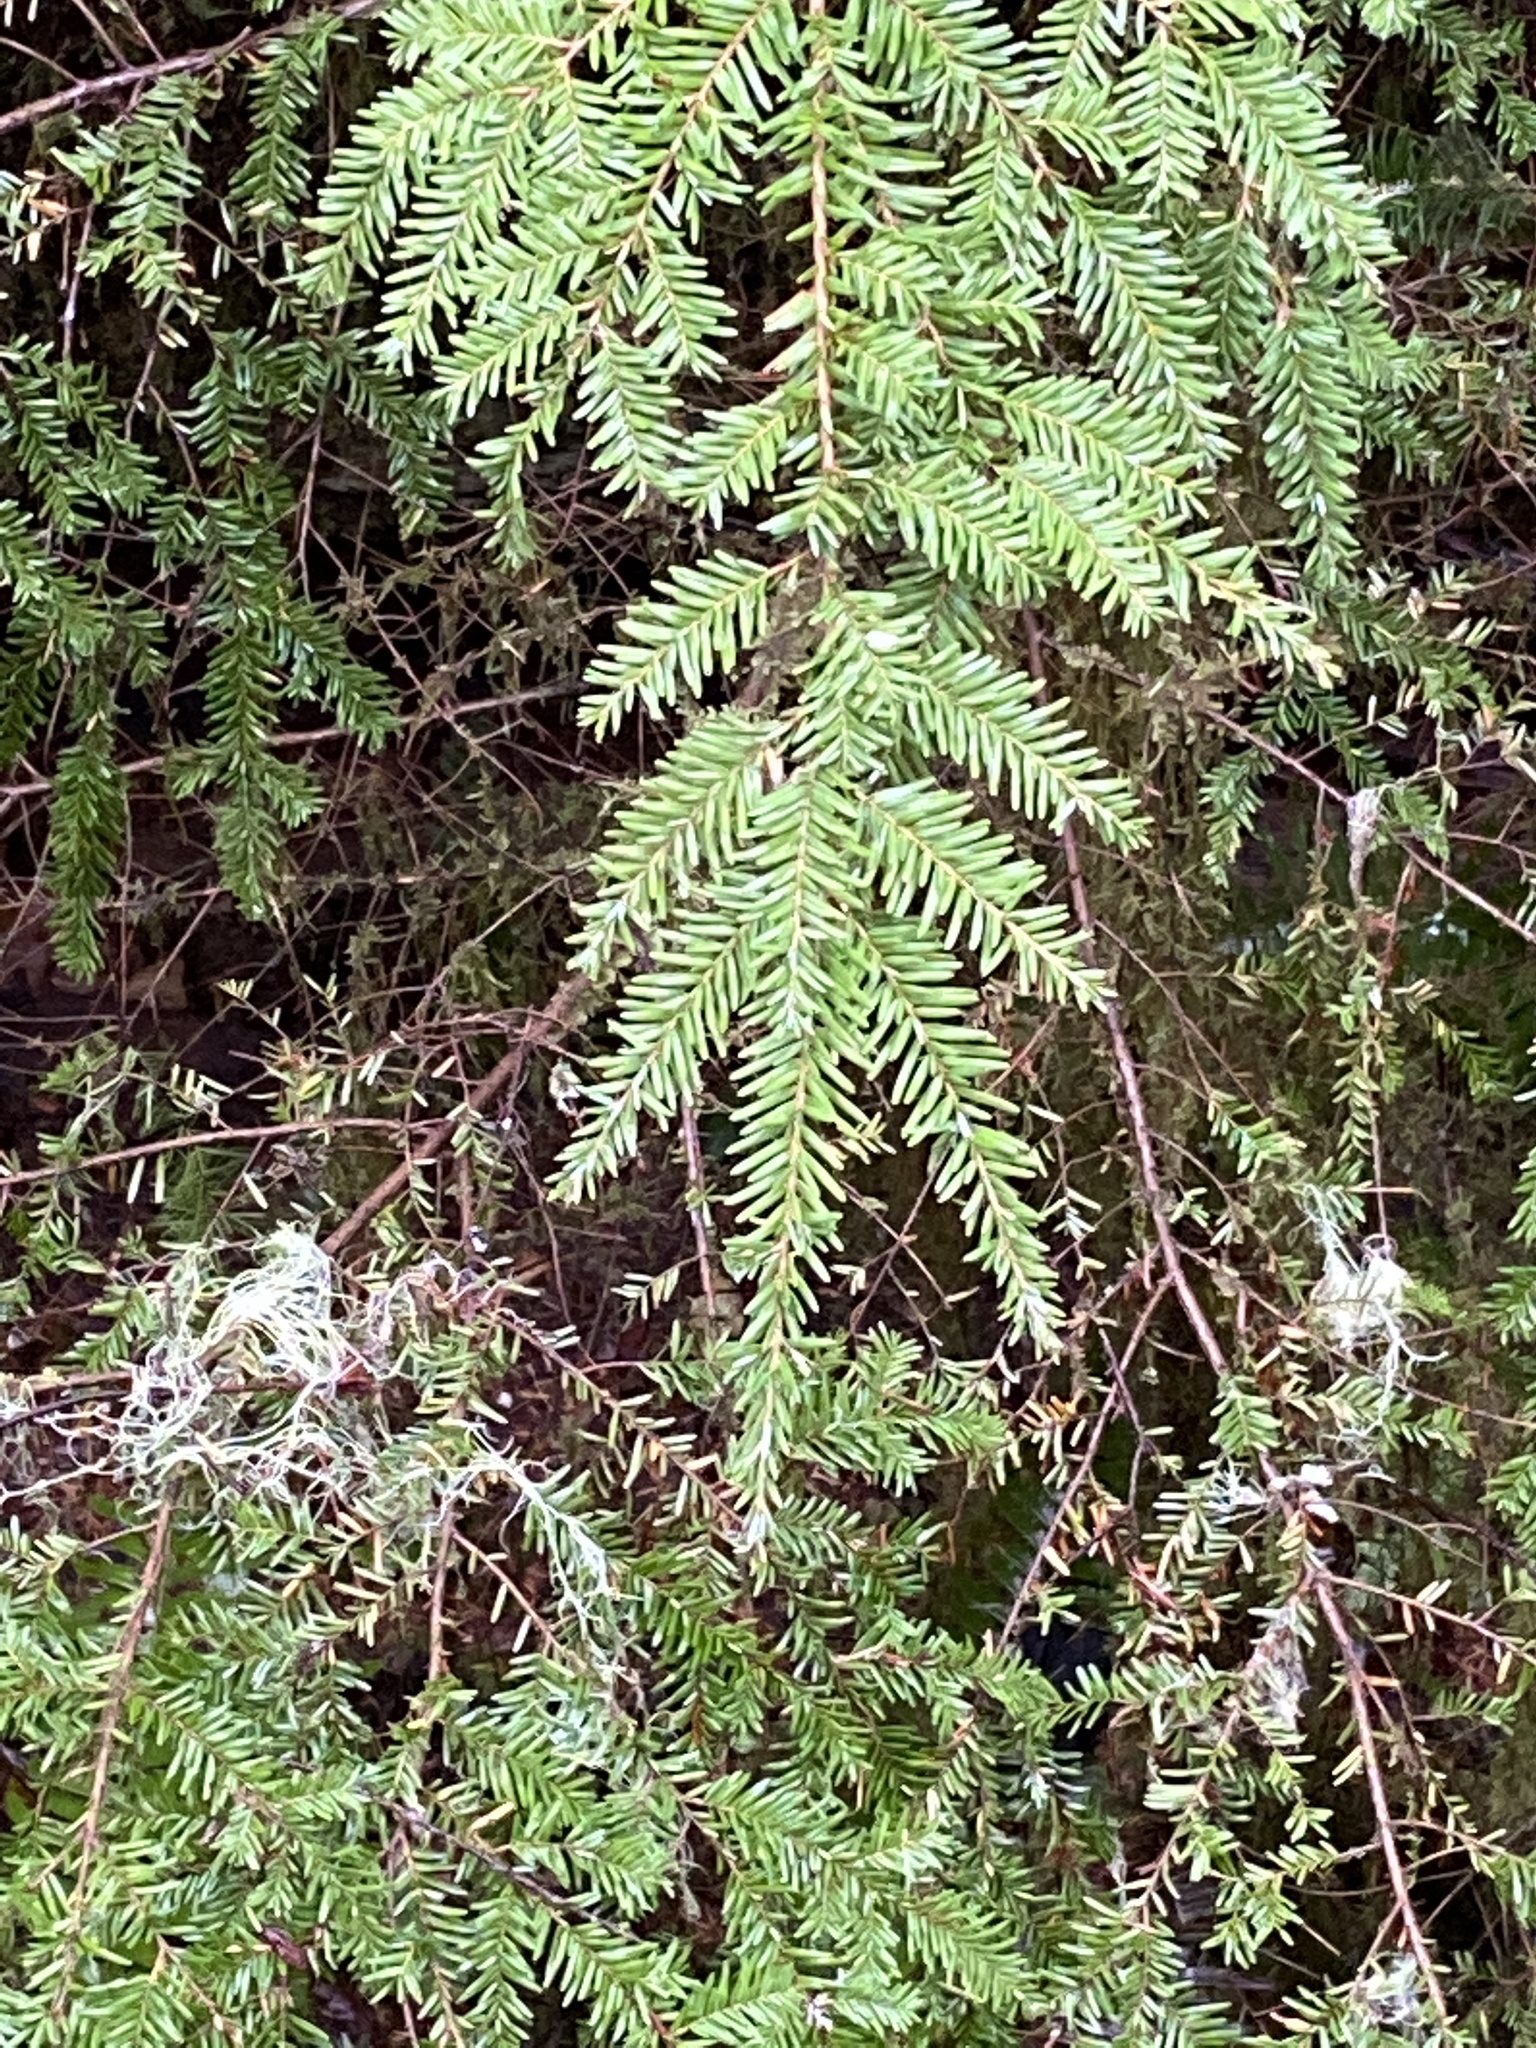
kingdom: Plantae
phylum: Tracheophyta
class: Pinopsida
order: Pinales
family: Pinaceae
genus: Tsuga
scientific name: Tsuga heterophylla
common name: Western hemlock
